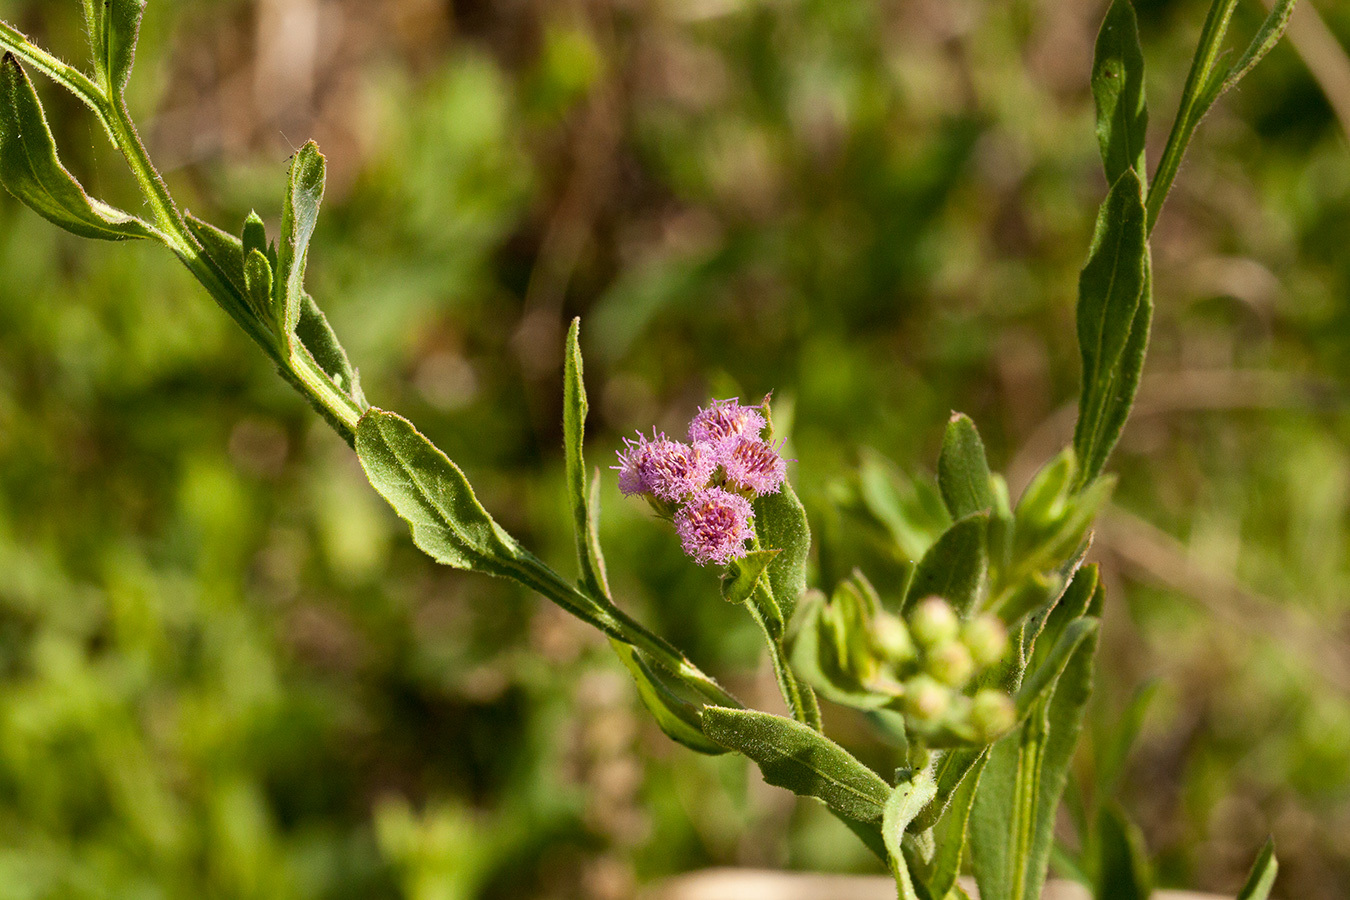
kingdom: Plantae
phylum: Tracheophyta
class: Magnoliopsida
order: Asterales
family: Asteraceae
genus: Litogyne
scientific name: Litogyne gariepina
